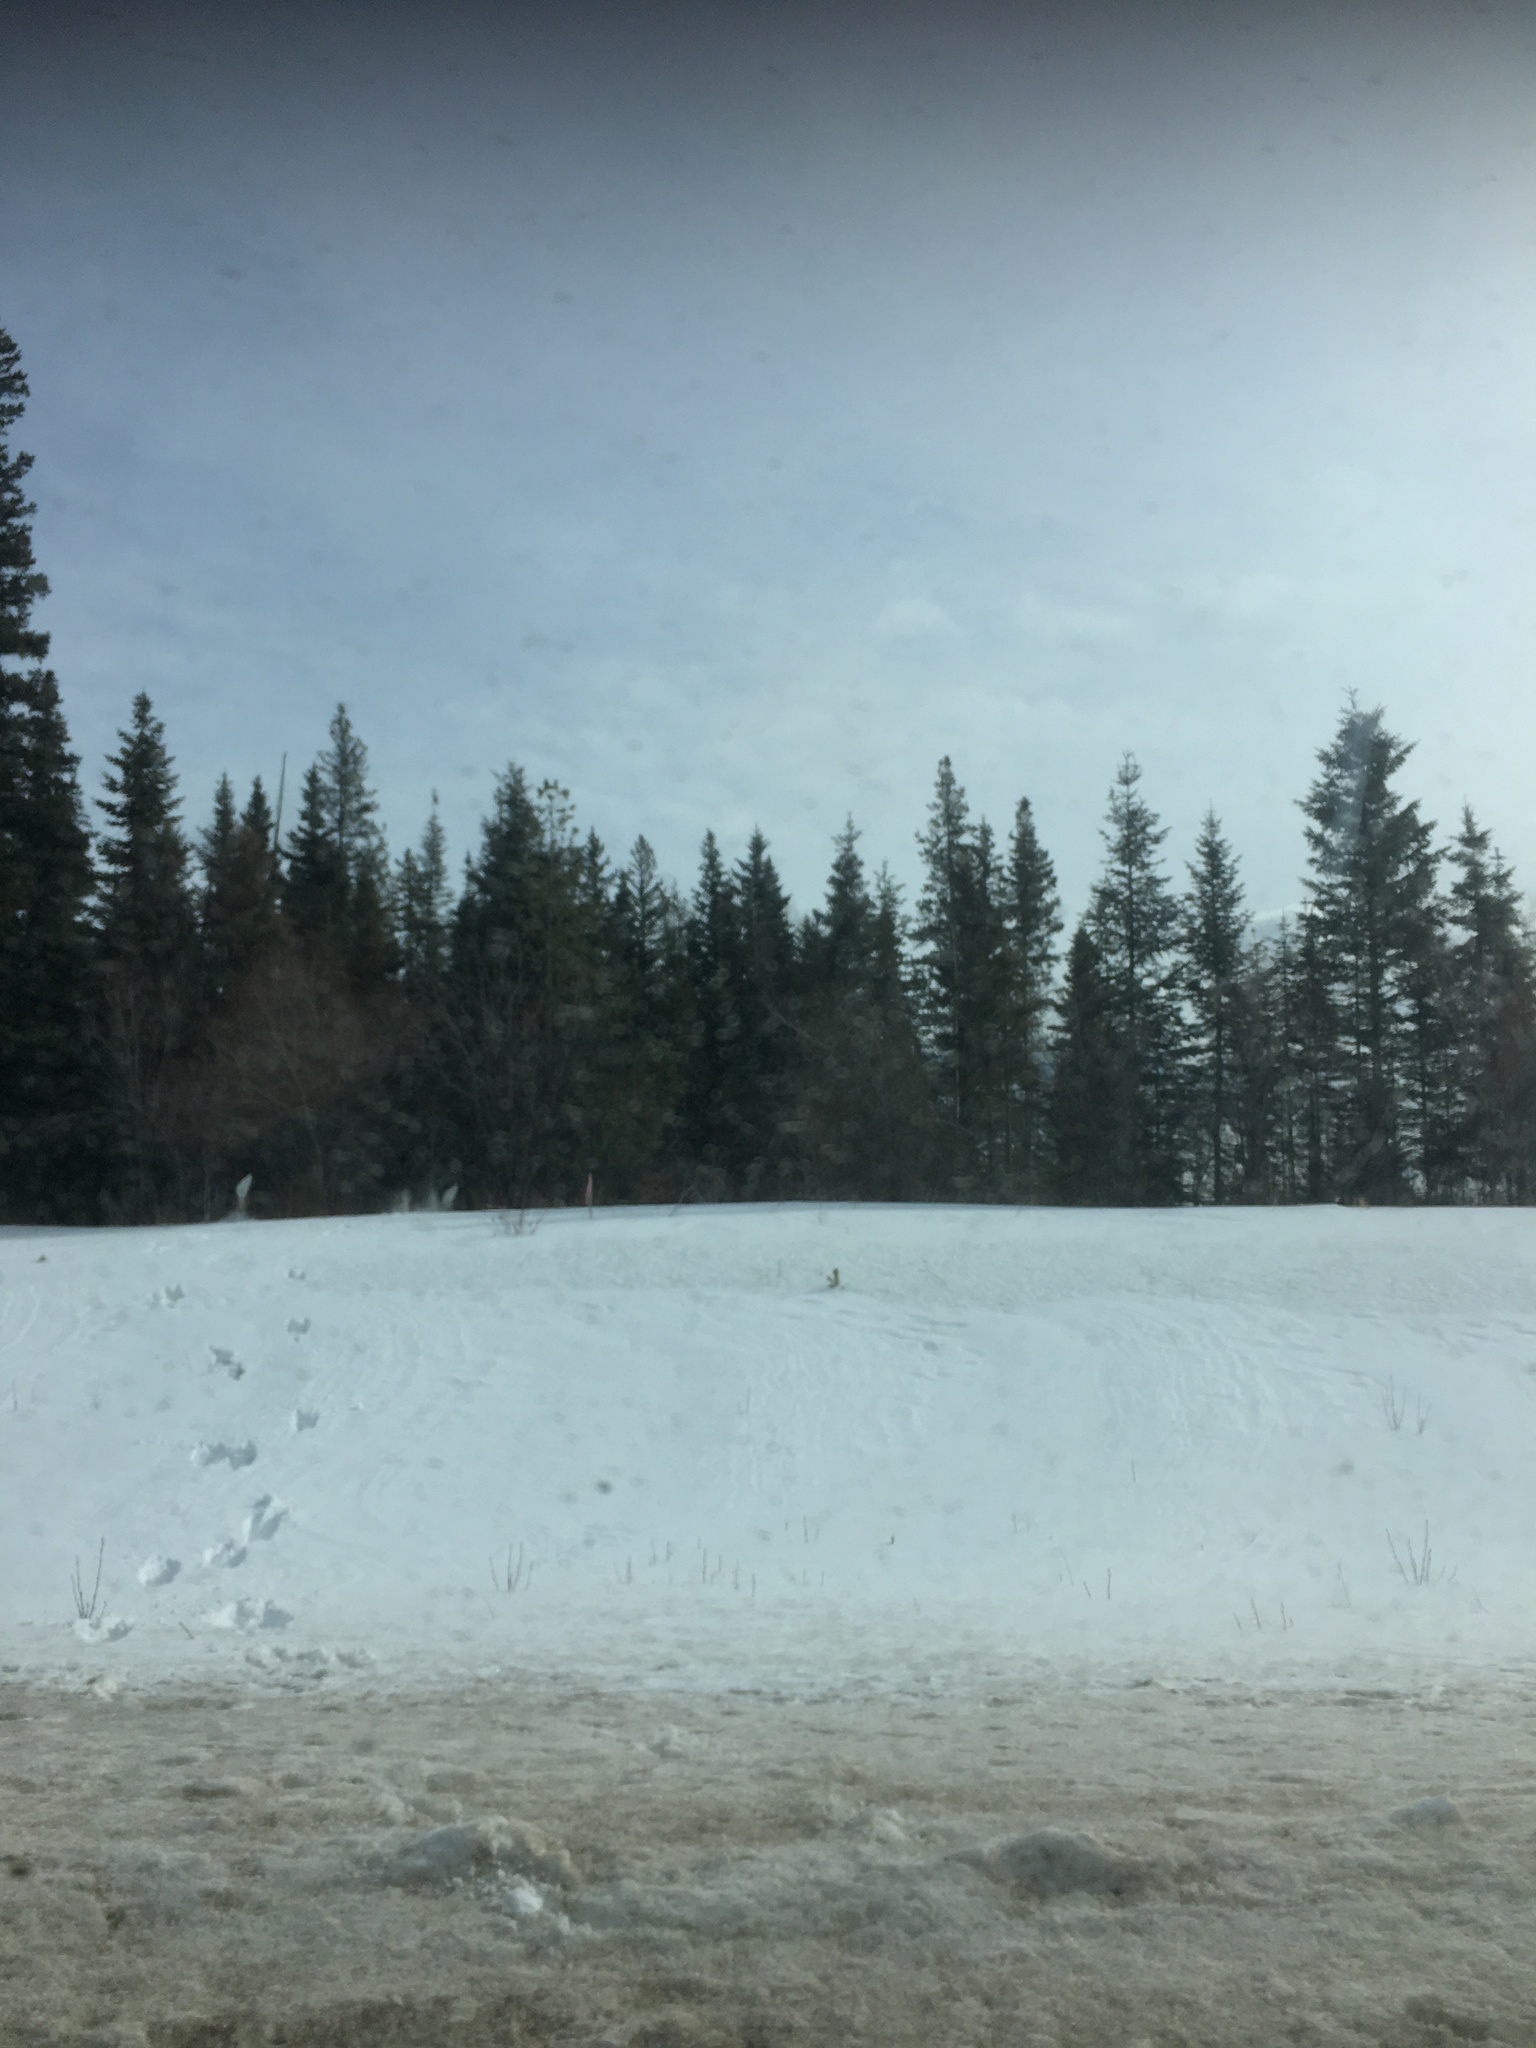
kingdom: Animalia
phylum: Chordata
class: Mammalia
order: Artiodactyla
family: Cervidae
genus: Odocoileus
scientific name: Odocoileus virginianus
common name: White-tailed deer
